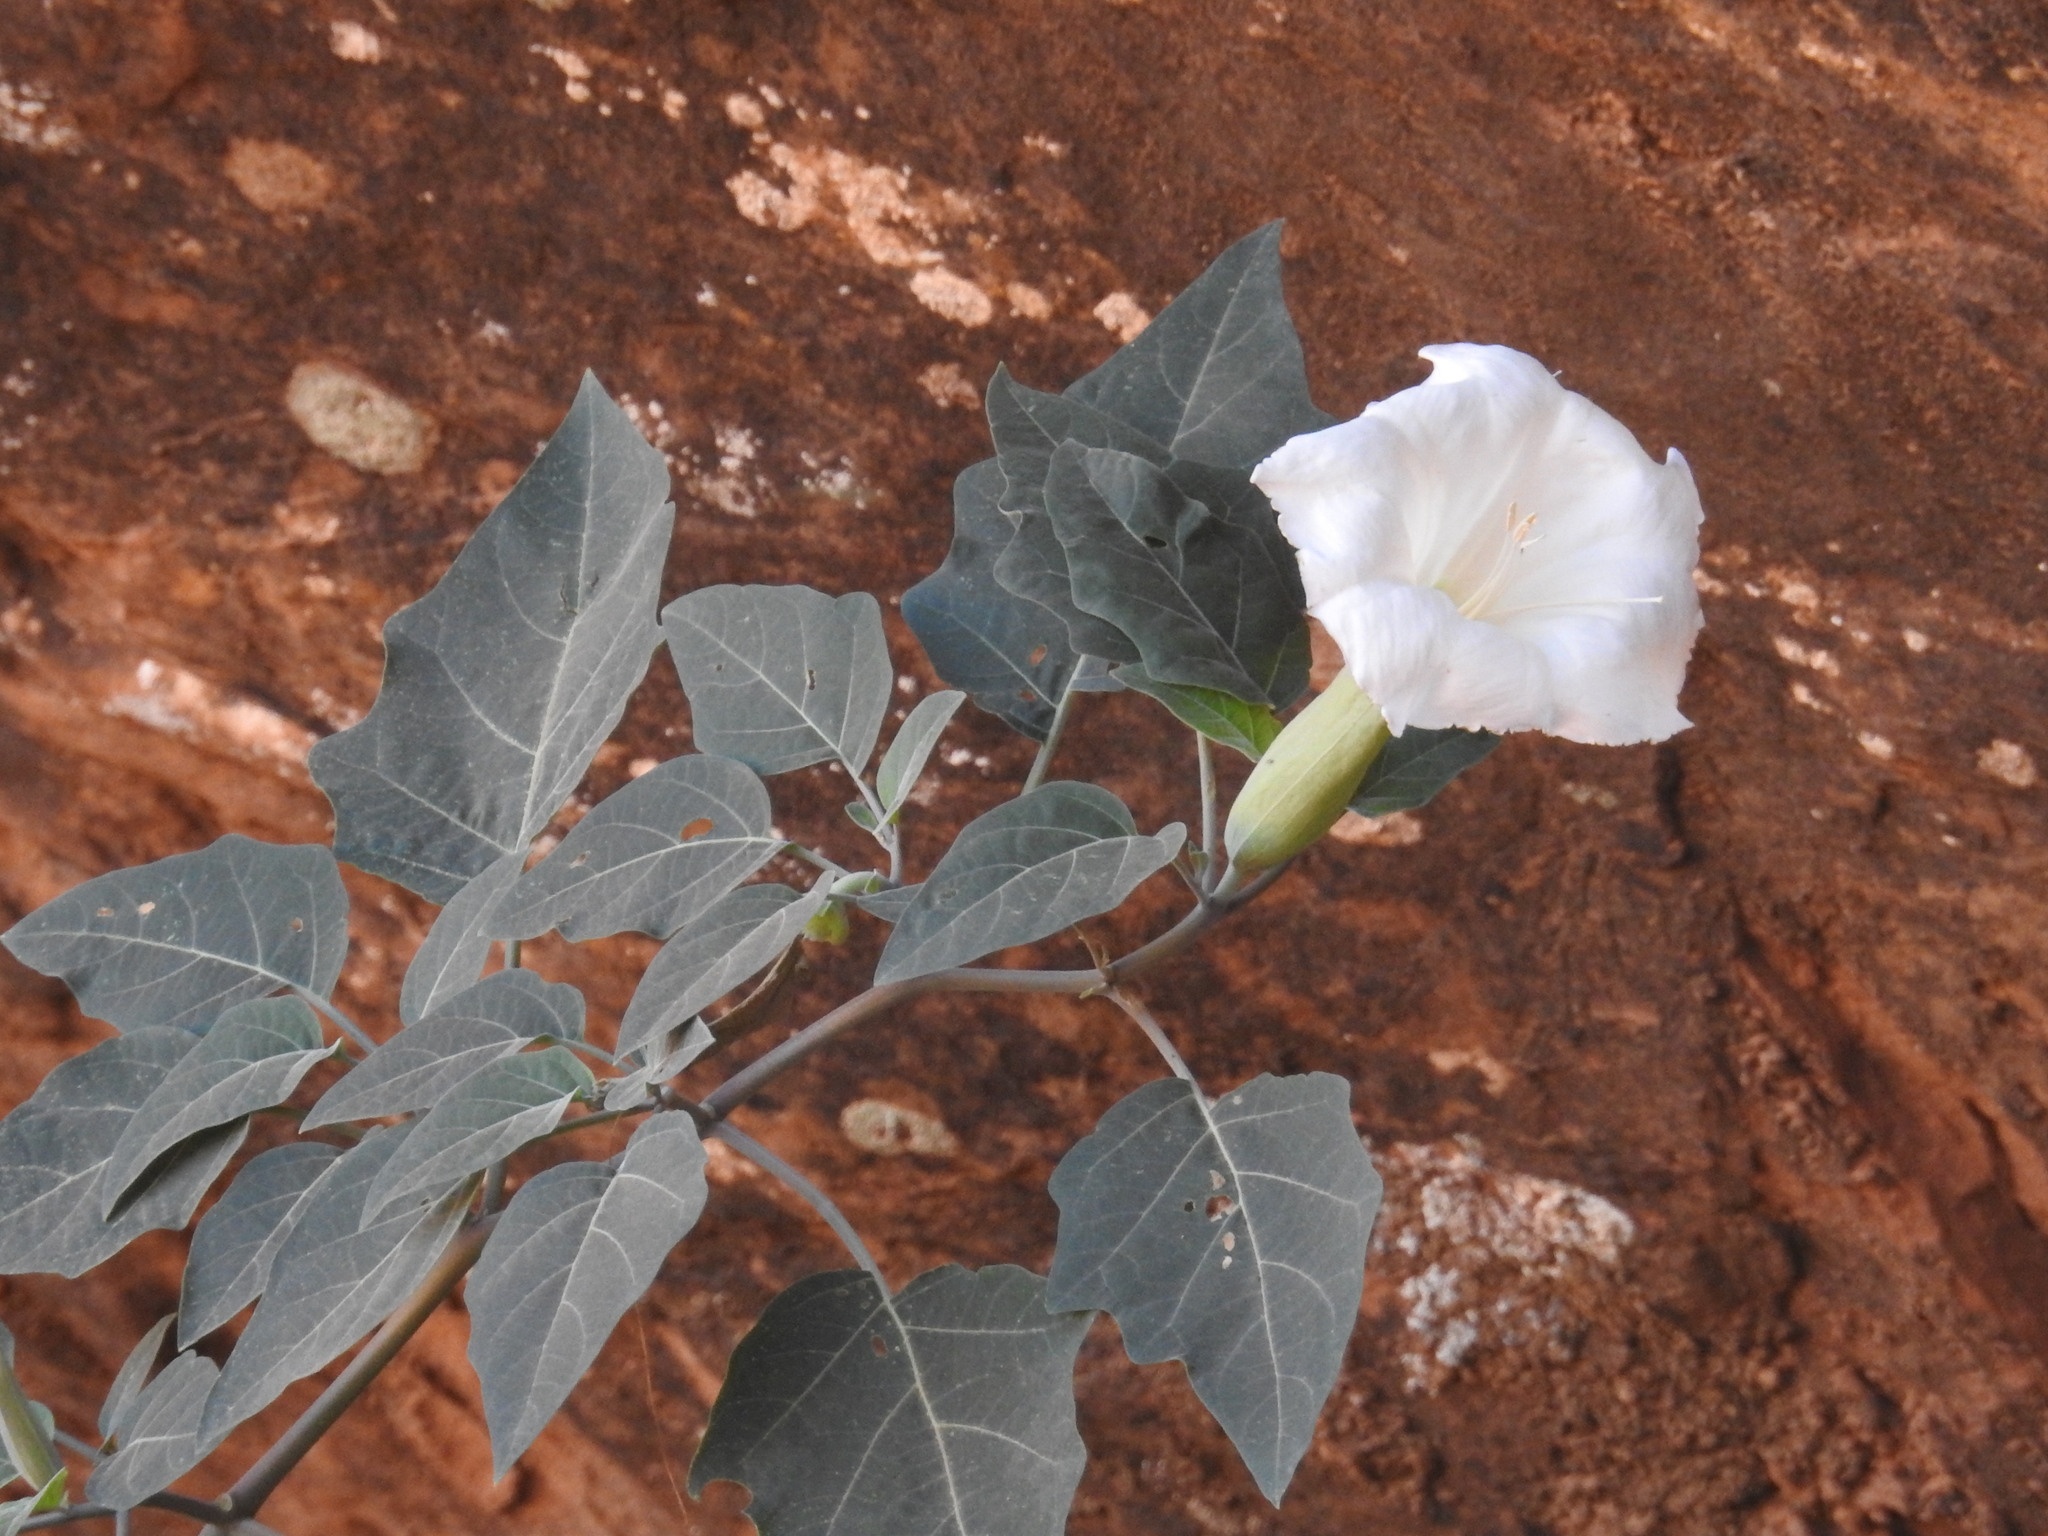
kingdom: Plantae
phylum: Tracheophyta
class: Magnoliopsida
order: Solanales
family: Solanaceae
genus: Datura
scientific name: Datura wrightii
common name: Sacred thorn-apple
